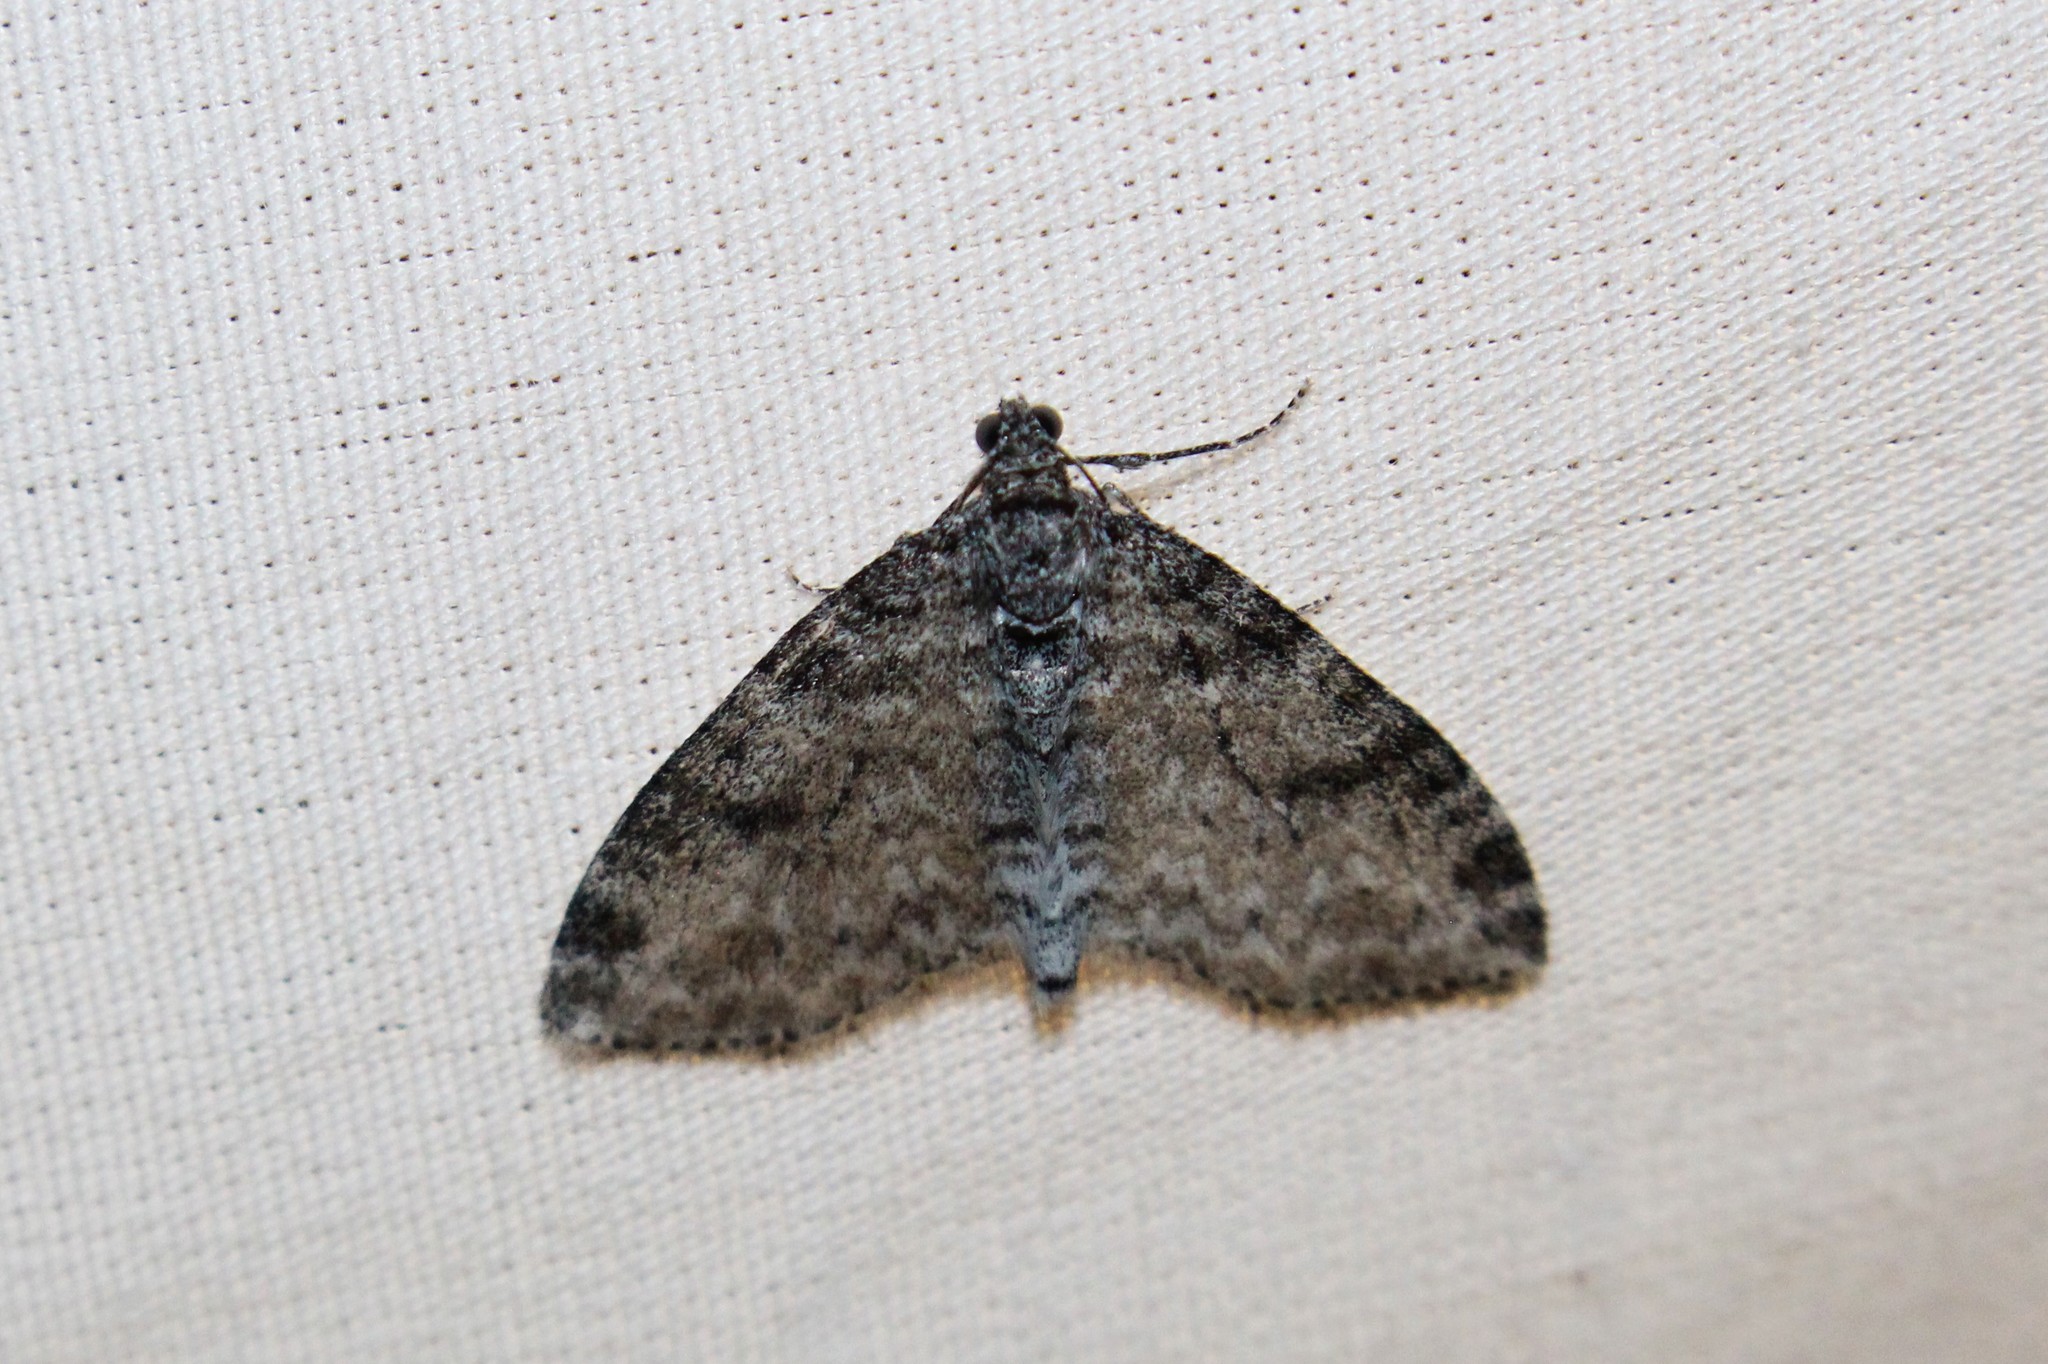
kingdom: Animalia
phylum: Arthropoda
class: Insecta
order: Lepidoptera
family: Geometridae
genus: Lobophora
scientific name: Lobophora nivigerata
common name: Powdered bigwing
